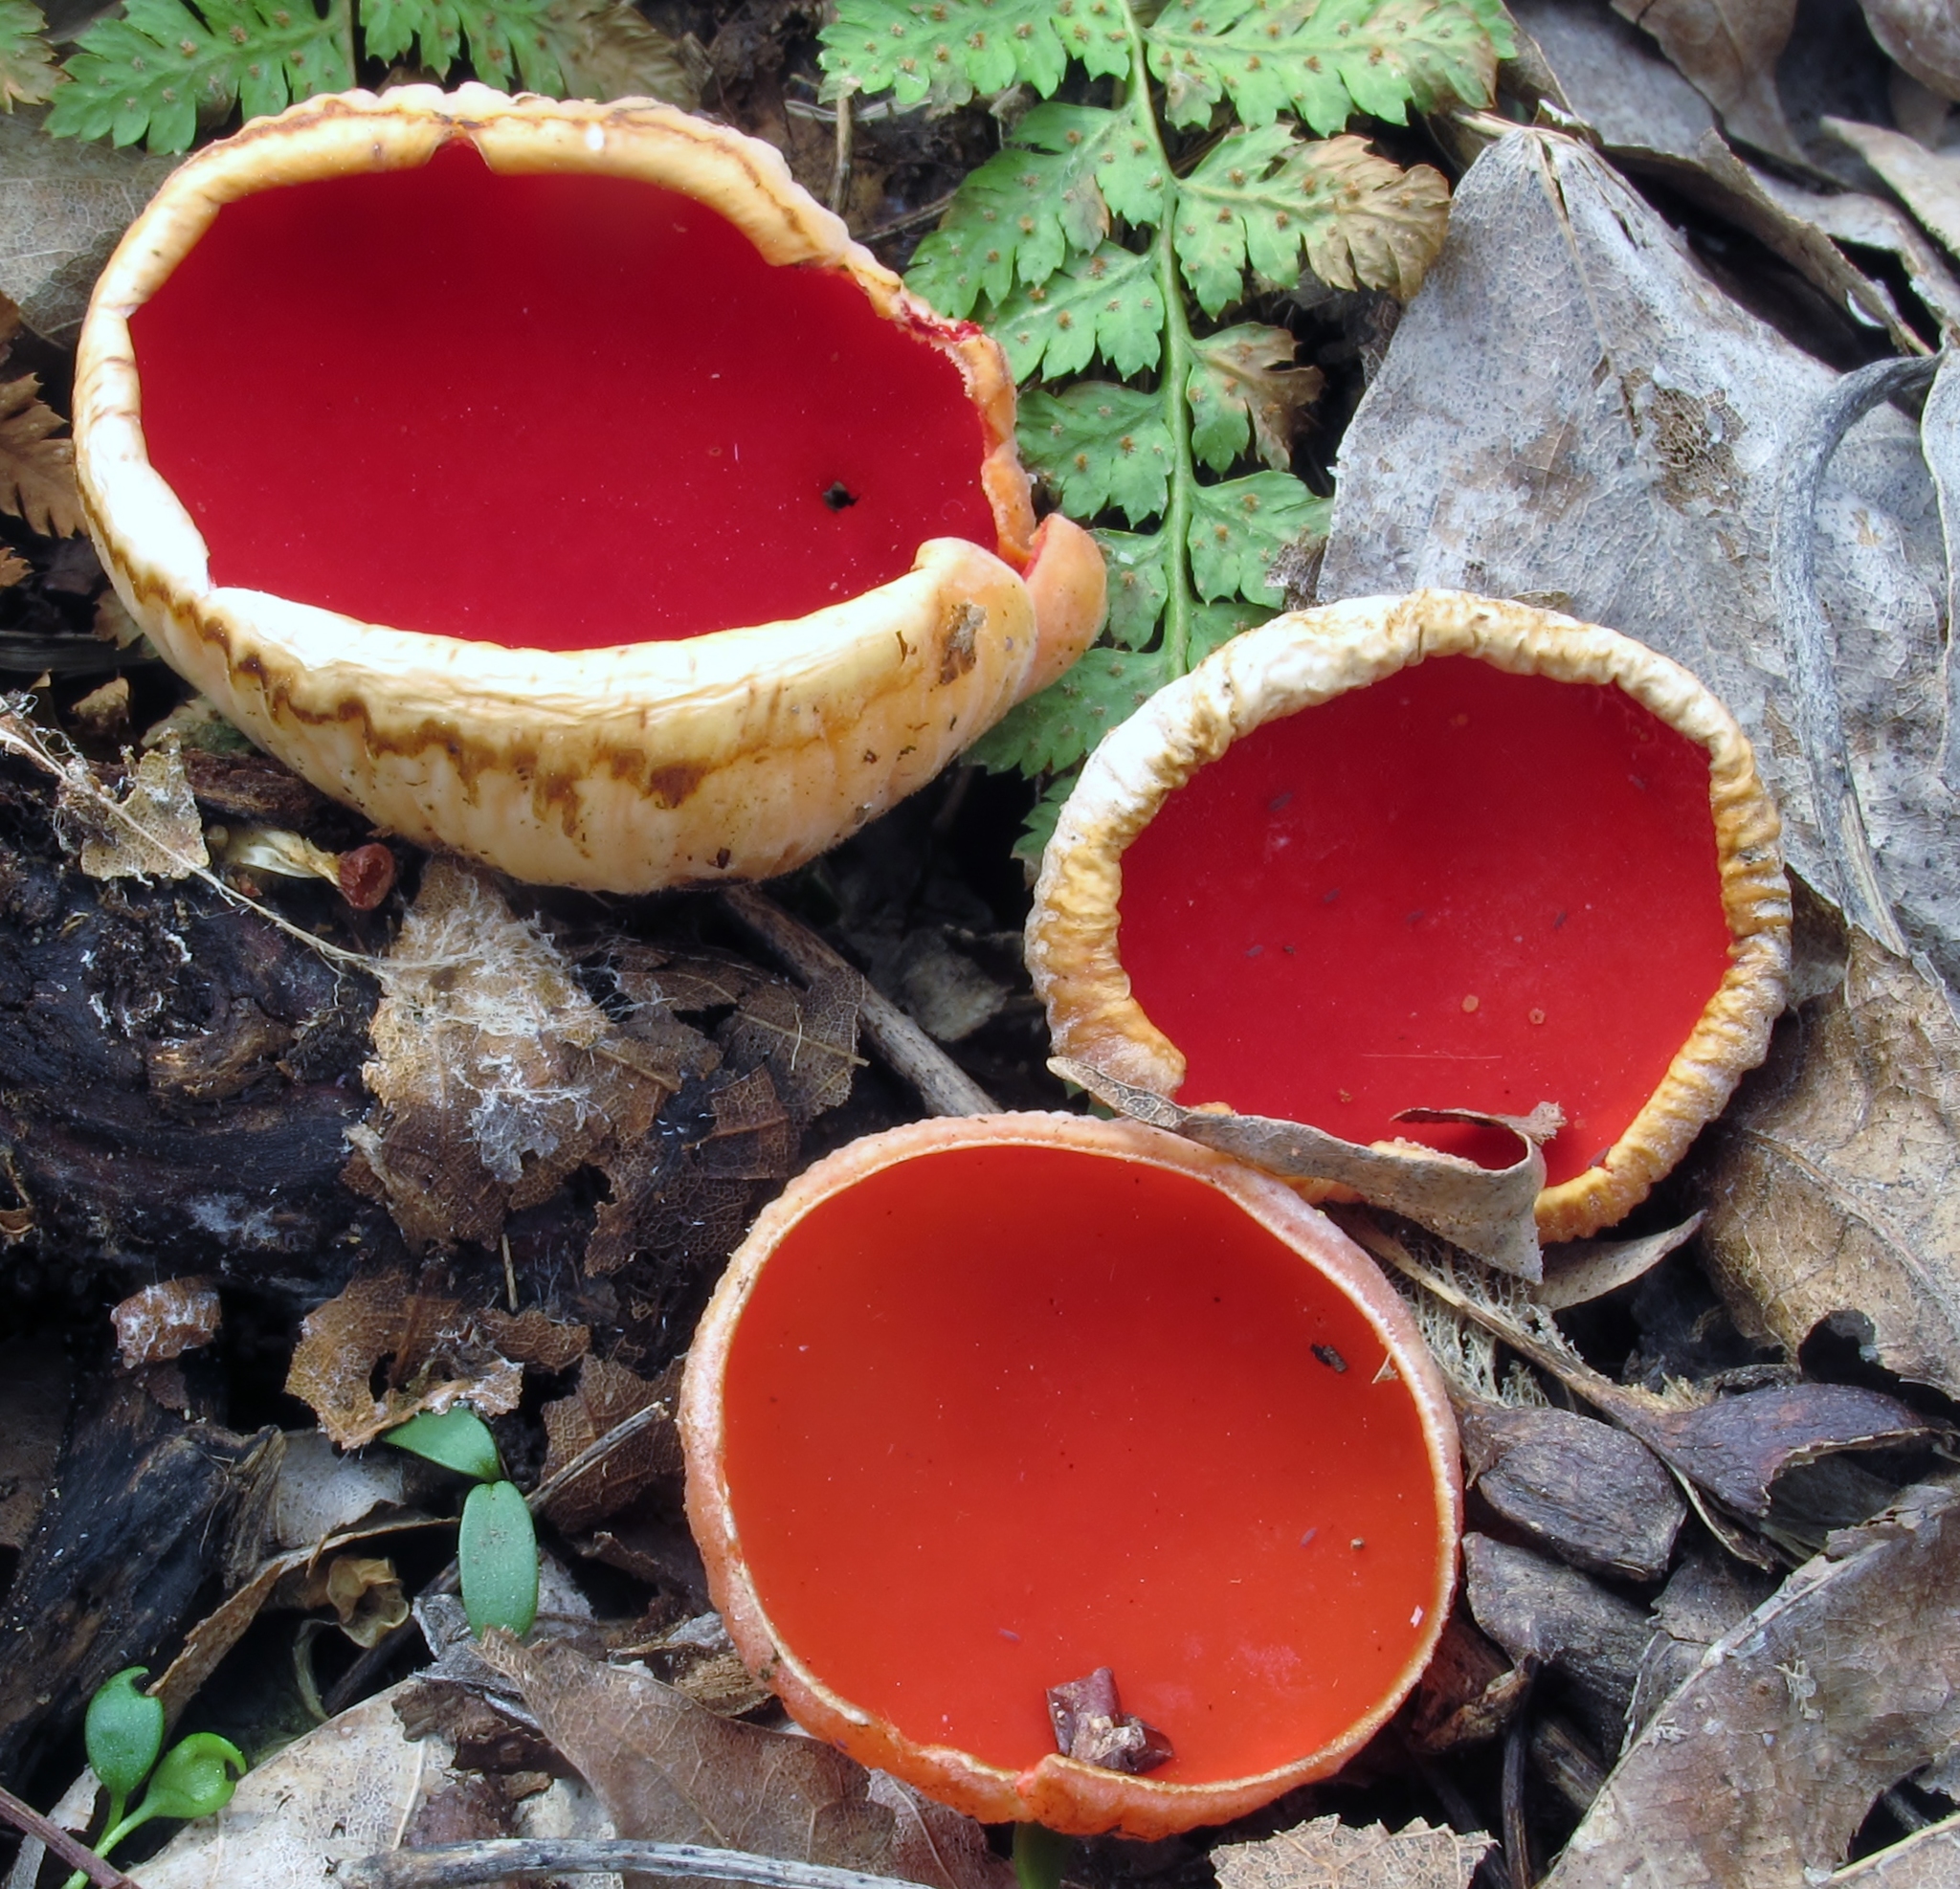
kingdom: Fungi
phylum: Ascomycota
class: Pezizomycetes
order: Pezizales
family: Sarcoscyphaceae
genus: Sarcoscypha
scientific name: Sarcoscypha austriaca
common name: Scarlet elfcup
